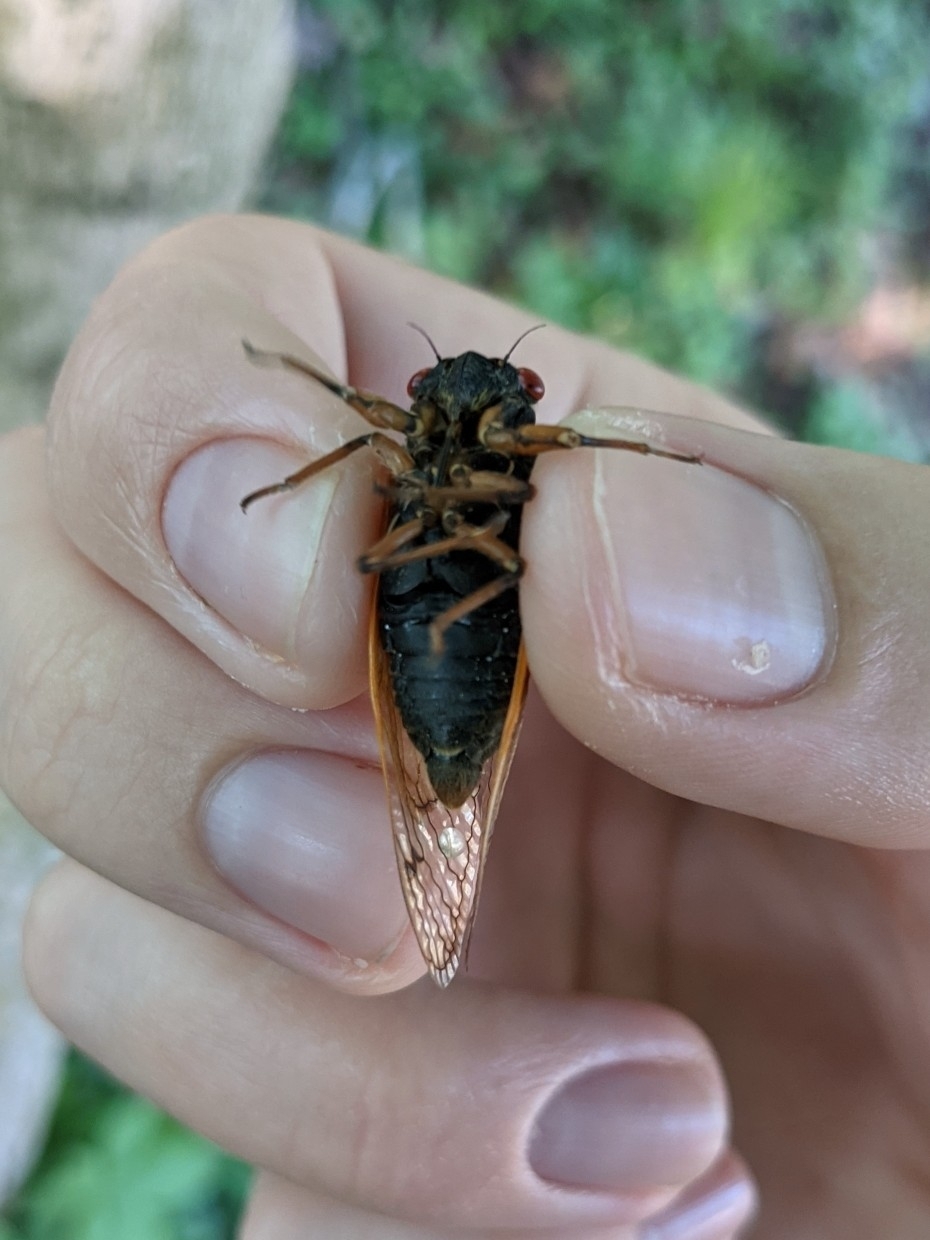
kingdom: Animalia
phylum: Arthropoda
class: Insecta
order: Hemiptera
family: Cicadidae
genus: Magicicada
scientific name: Magicicada cassini
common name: Cassin's 17-year cicada
